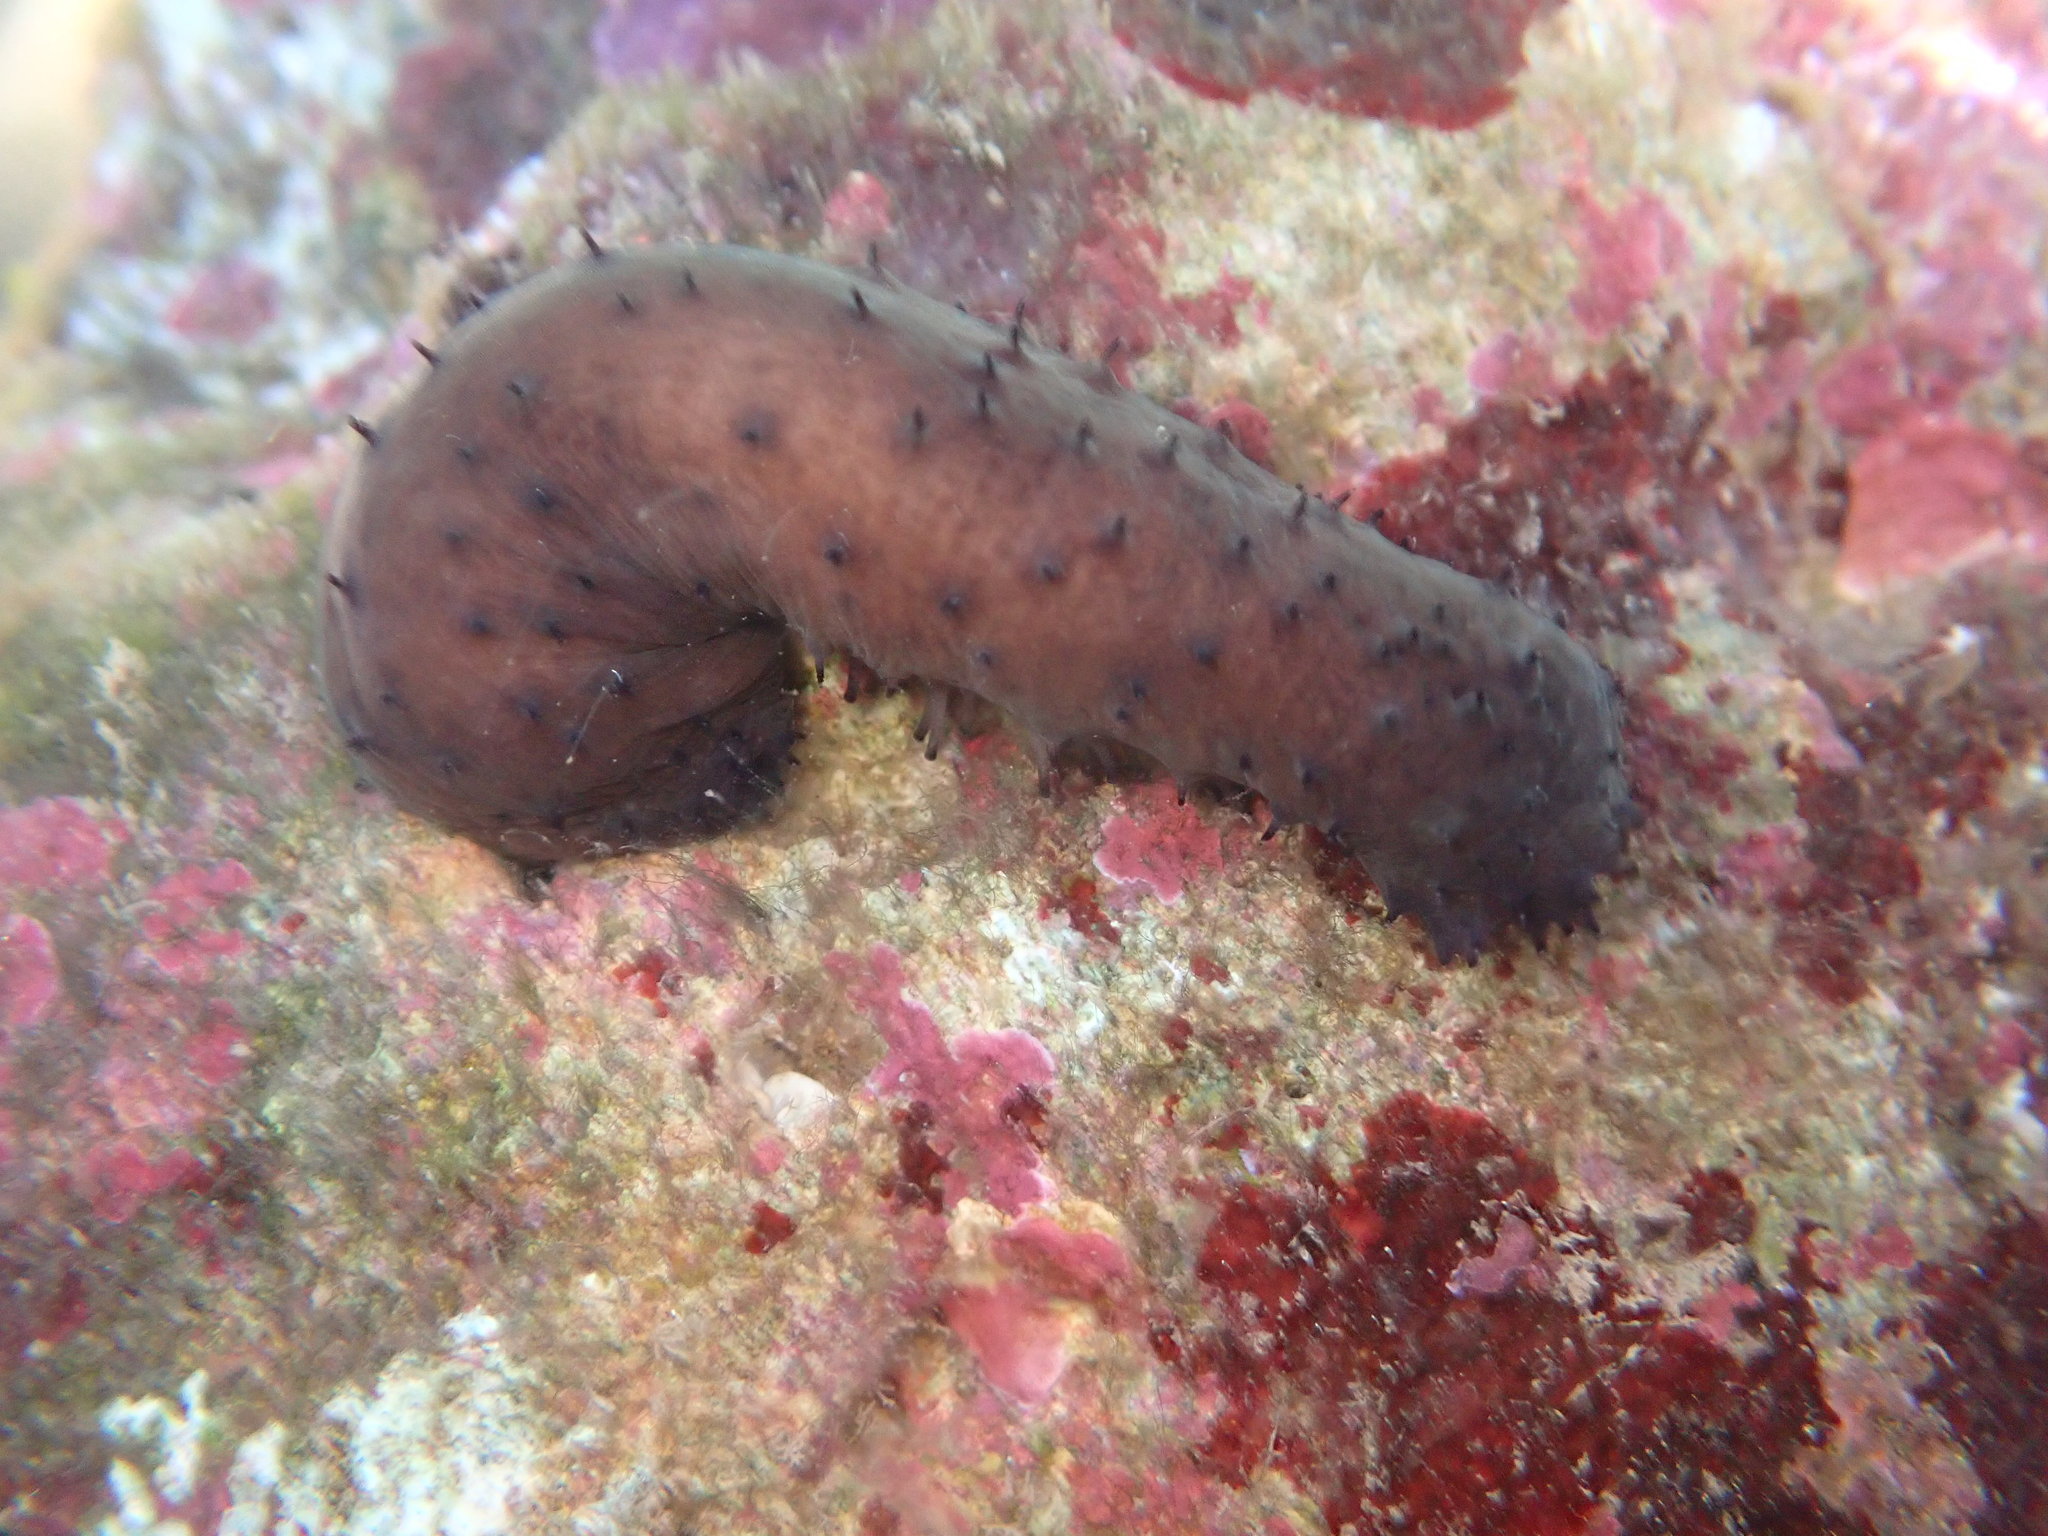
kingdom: Animalia
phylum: Echinodermata
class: Holothuroidea
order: Holothuriida
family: Holothuriidae
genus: Holothuria
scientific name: Holothuria difficilis
